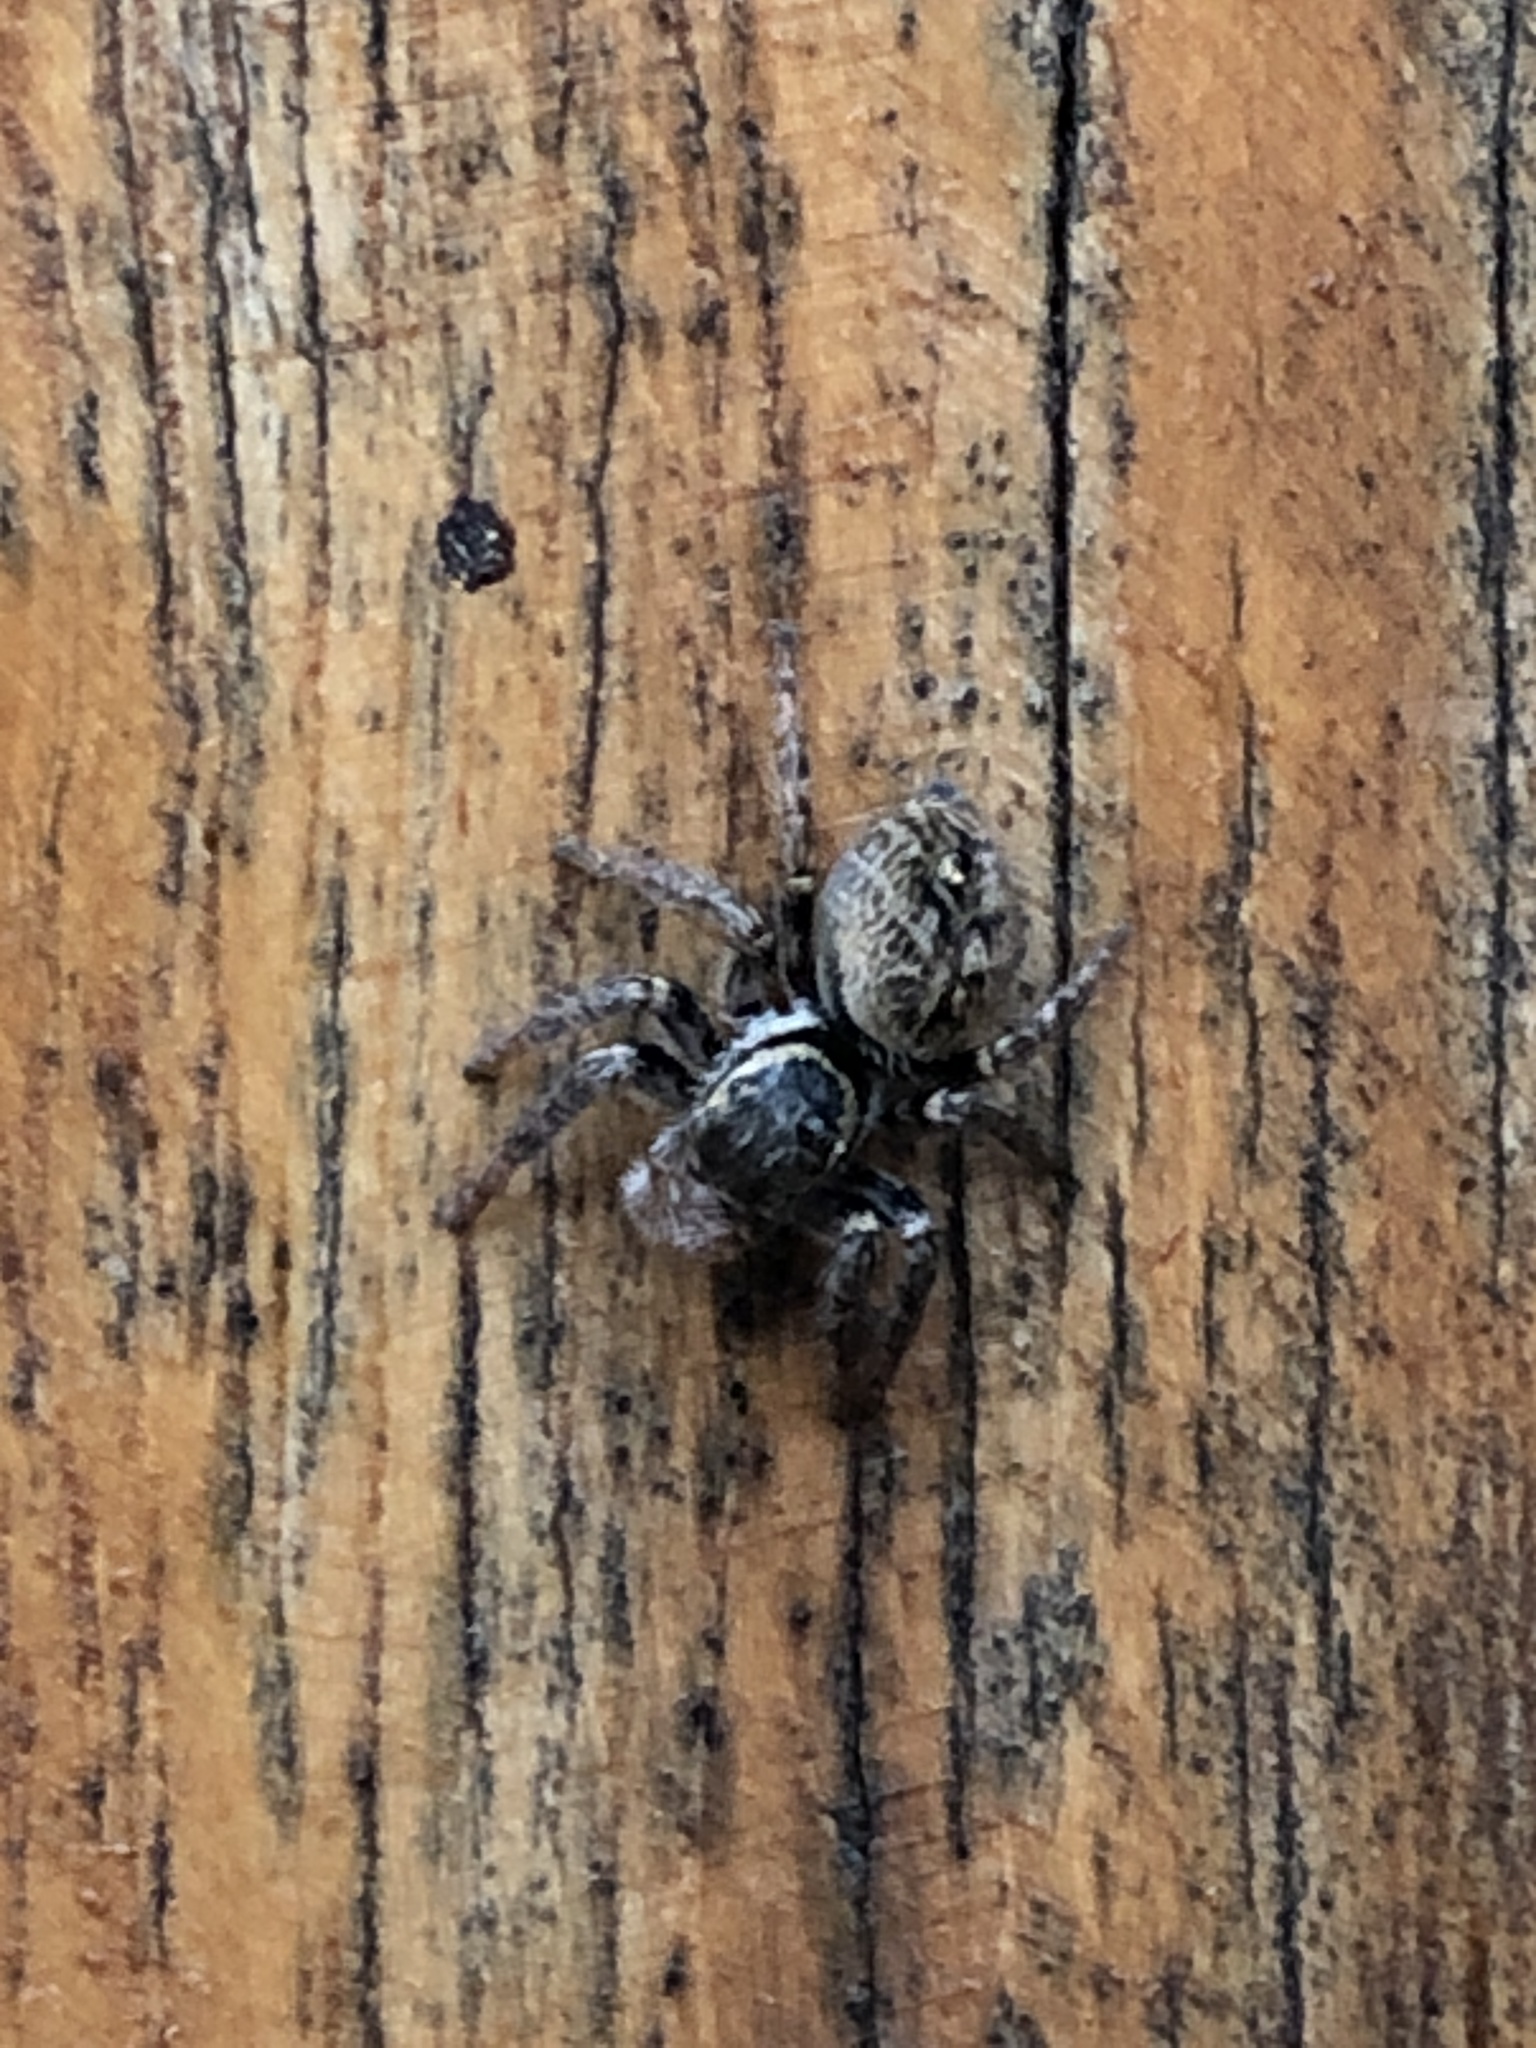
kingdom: Animalia
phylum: Arthropoda
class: Arachnida
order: Araneae
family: Salticidae
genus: Carrhotus
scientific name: Carrhotus xanthogramma
